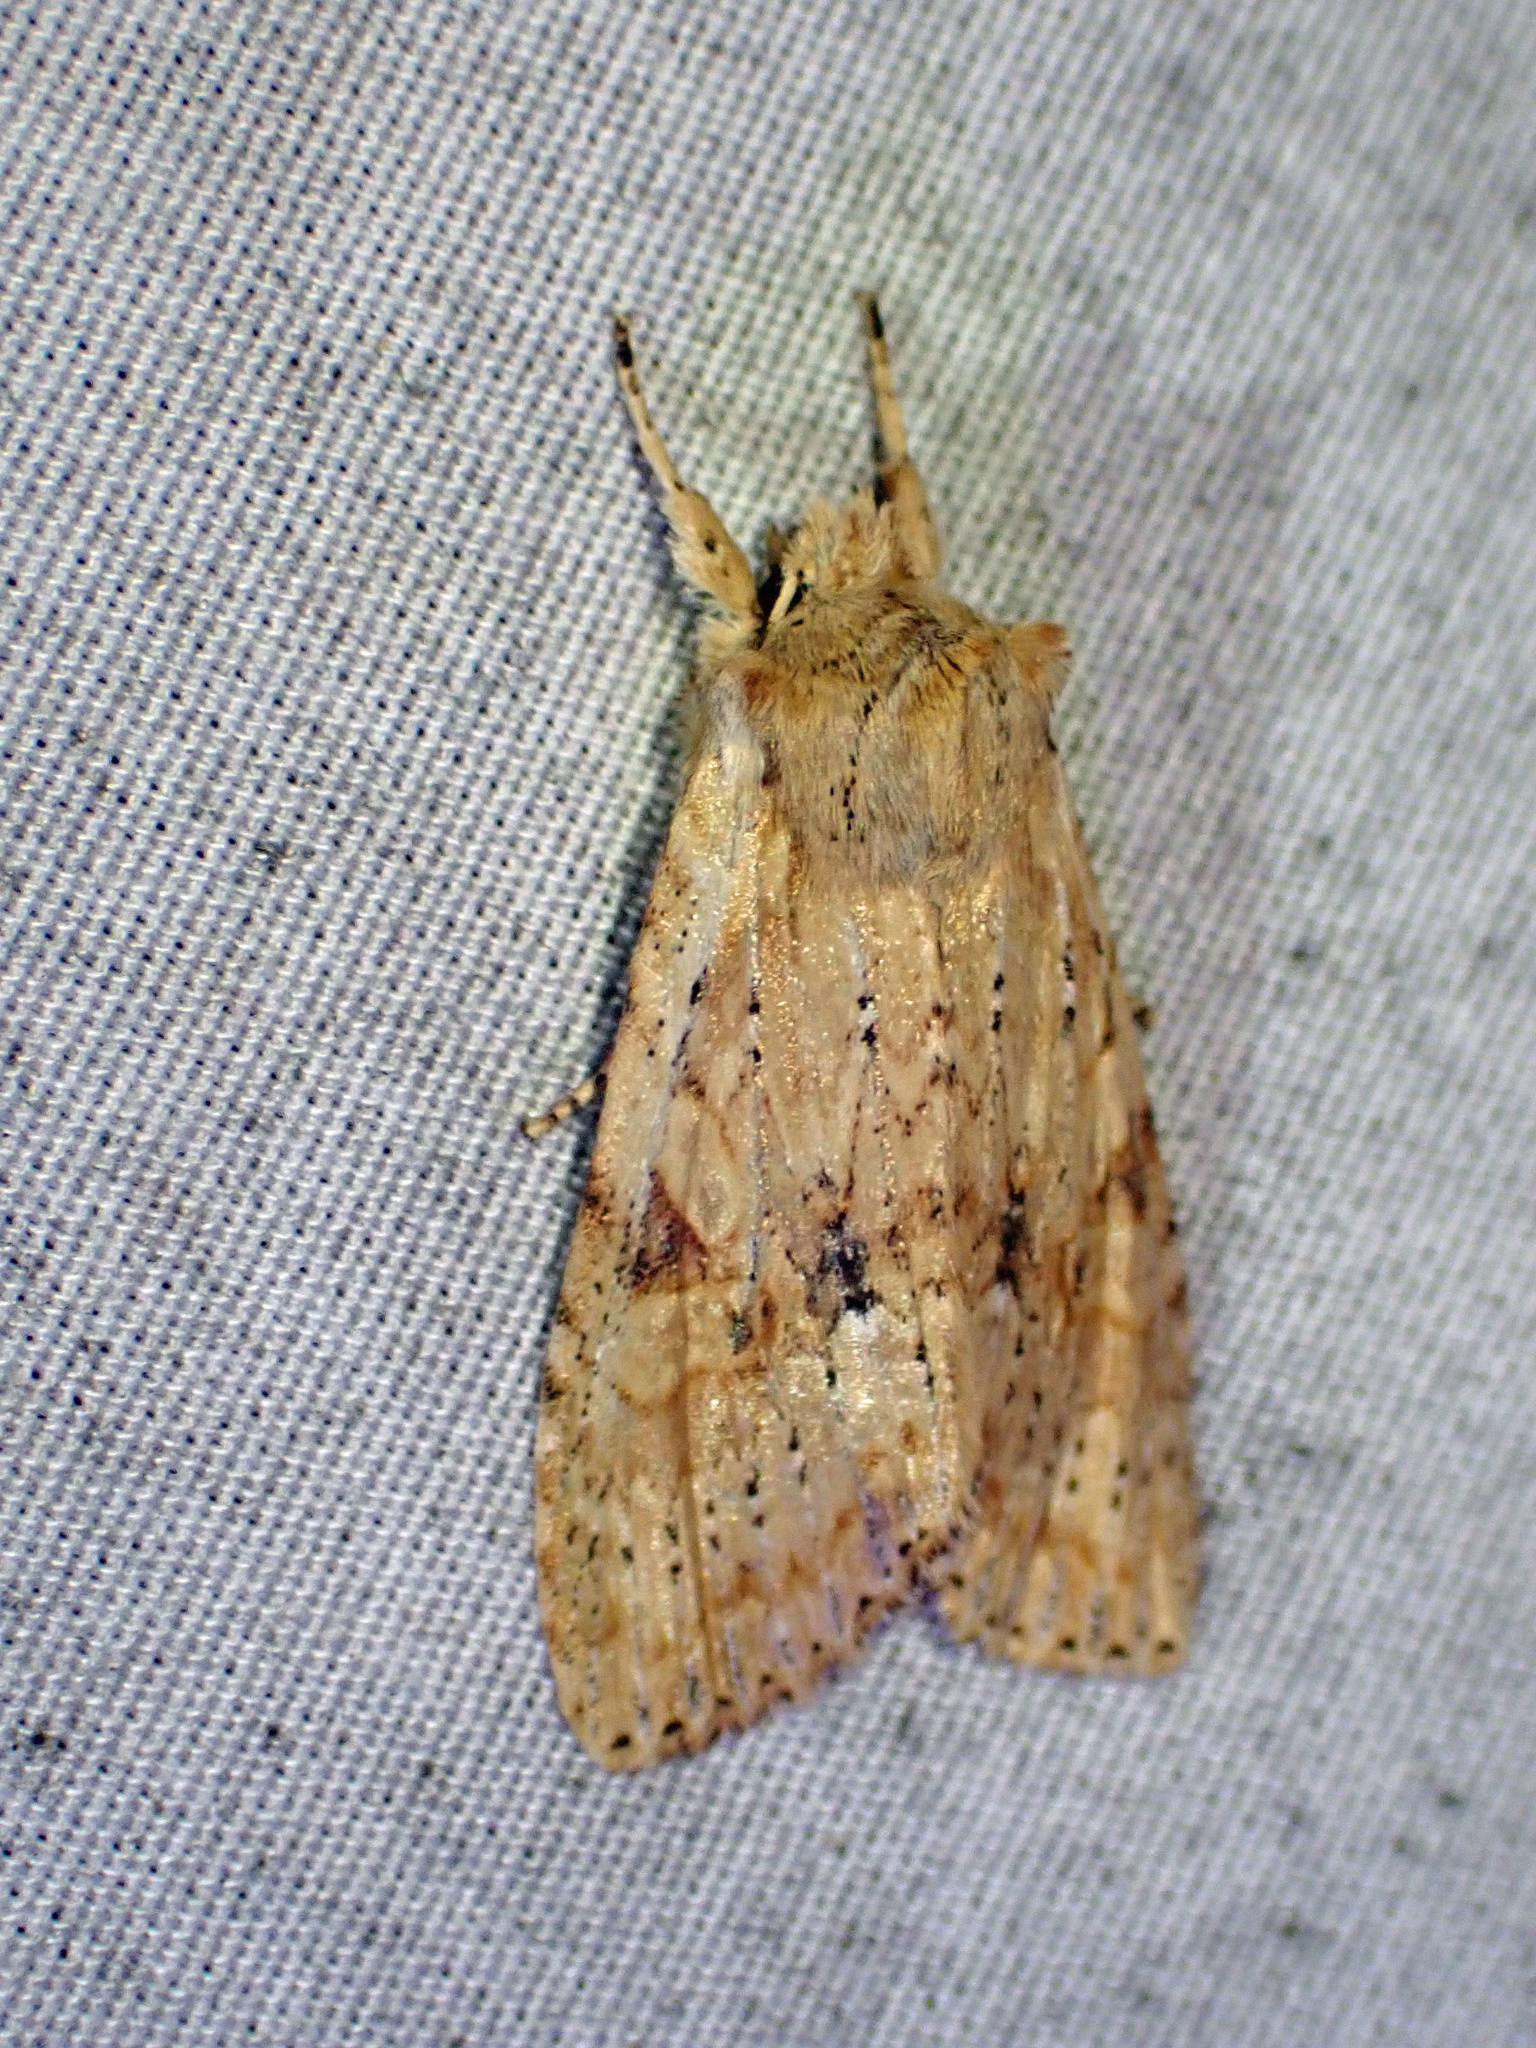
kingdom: Animalia
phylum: Arthropoda
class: Insecta
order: Lepidoptera
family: Noctuidae
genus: Lithophane
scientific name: Lithophane innominata
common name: Nameless pinion moth
